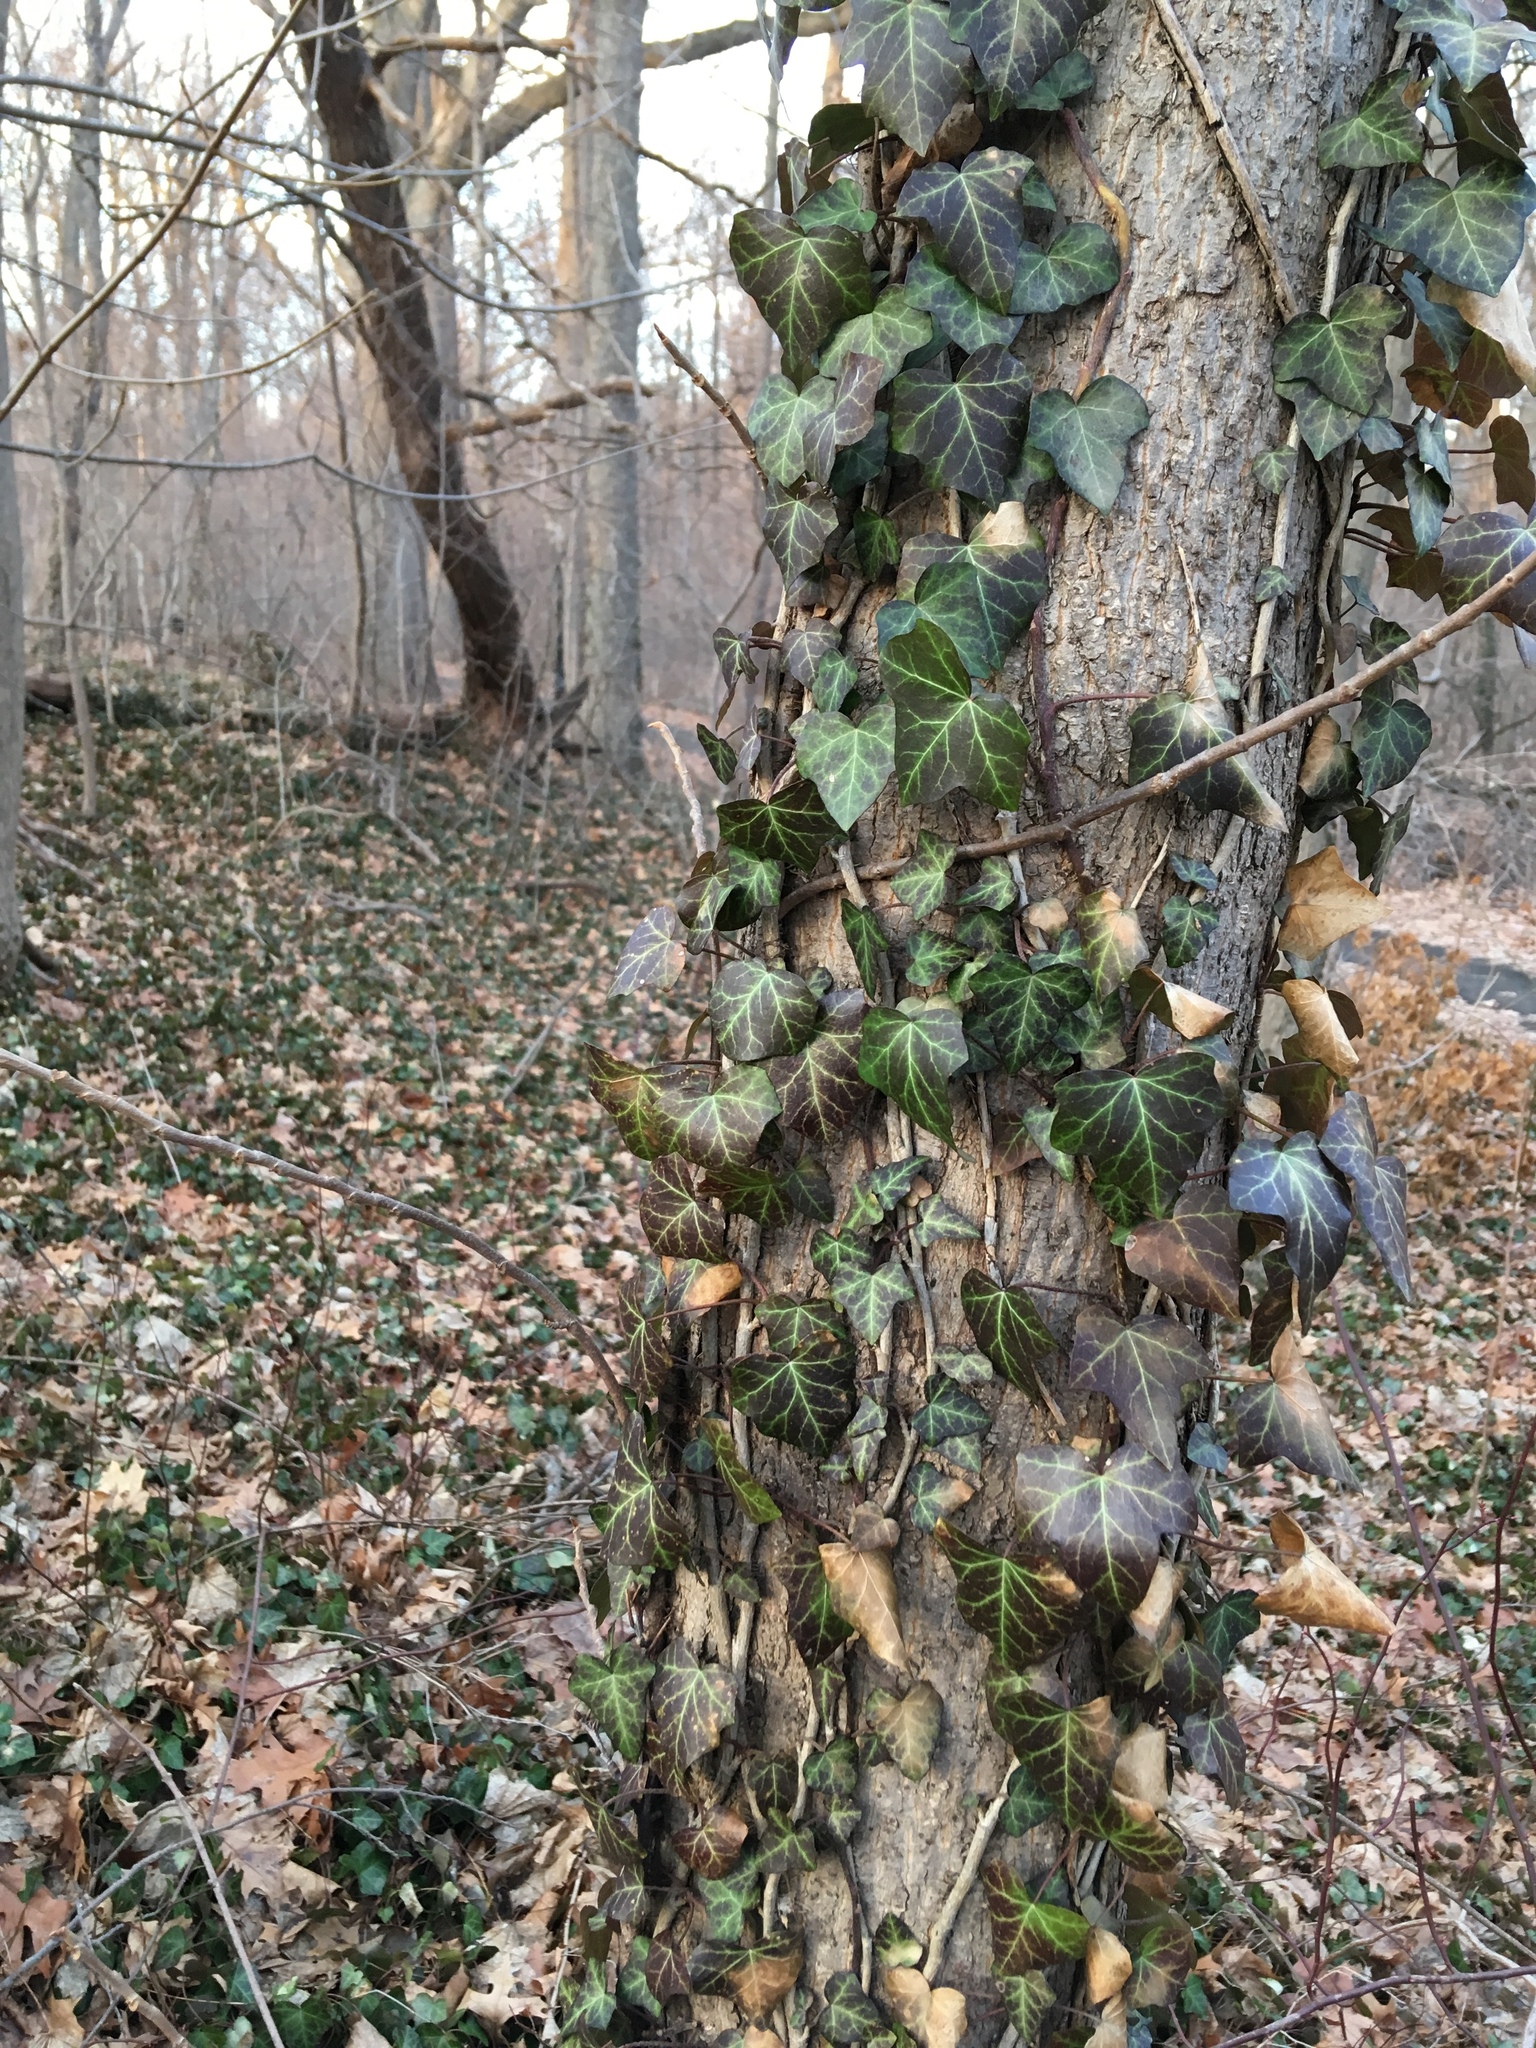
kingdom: Plantae
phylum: Tracheophyta
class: Magnoliopsida
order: Apiales
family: Araliaceae
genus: Hedera
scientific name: Hedera helix
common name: Ivy
